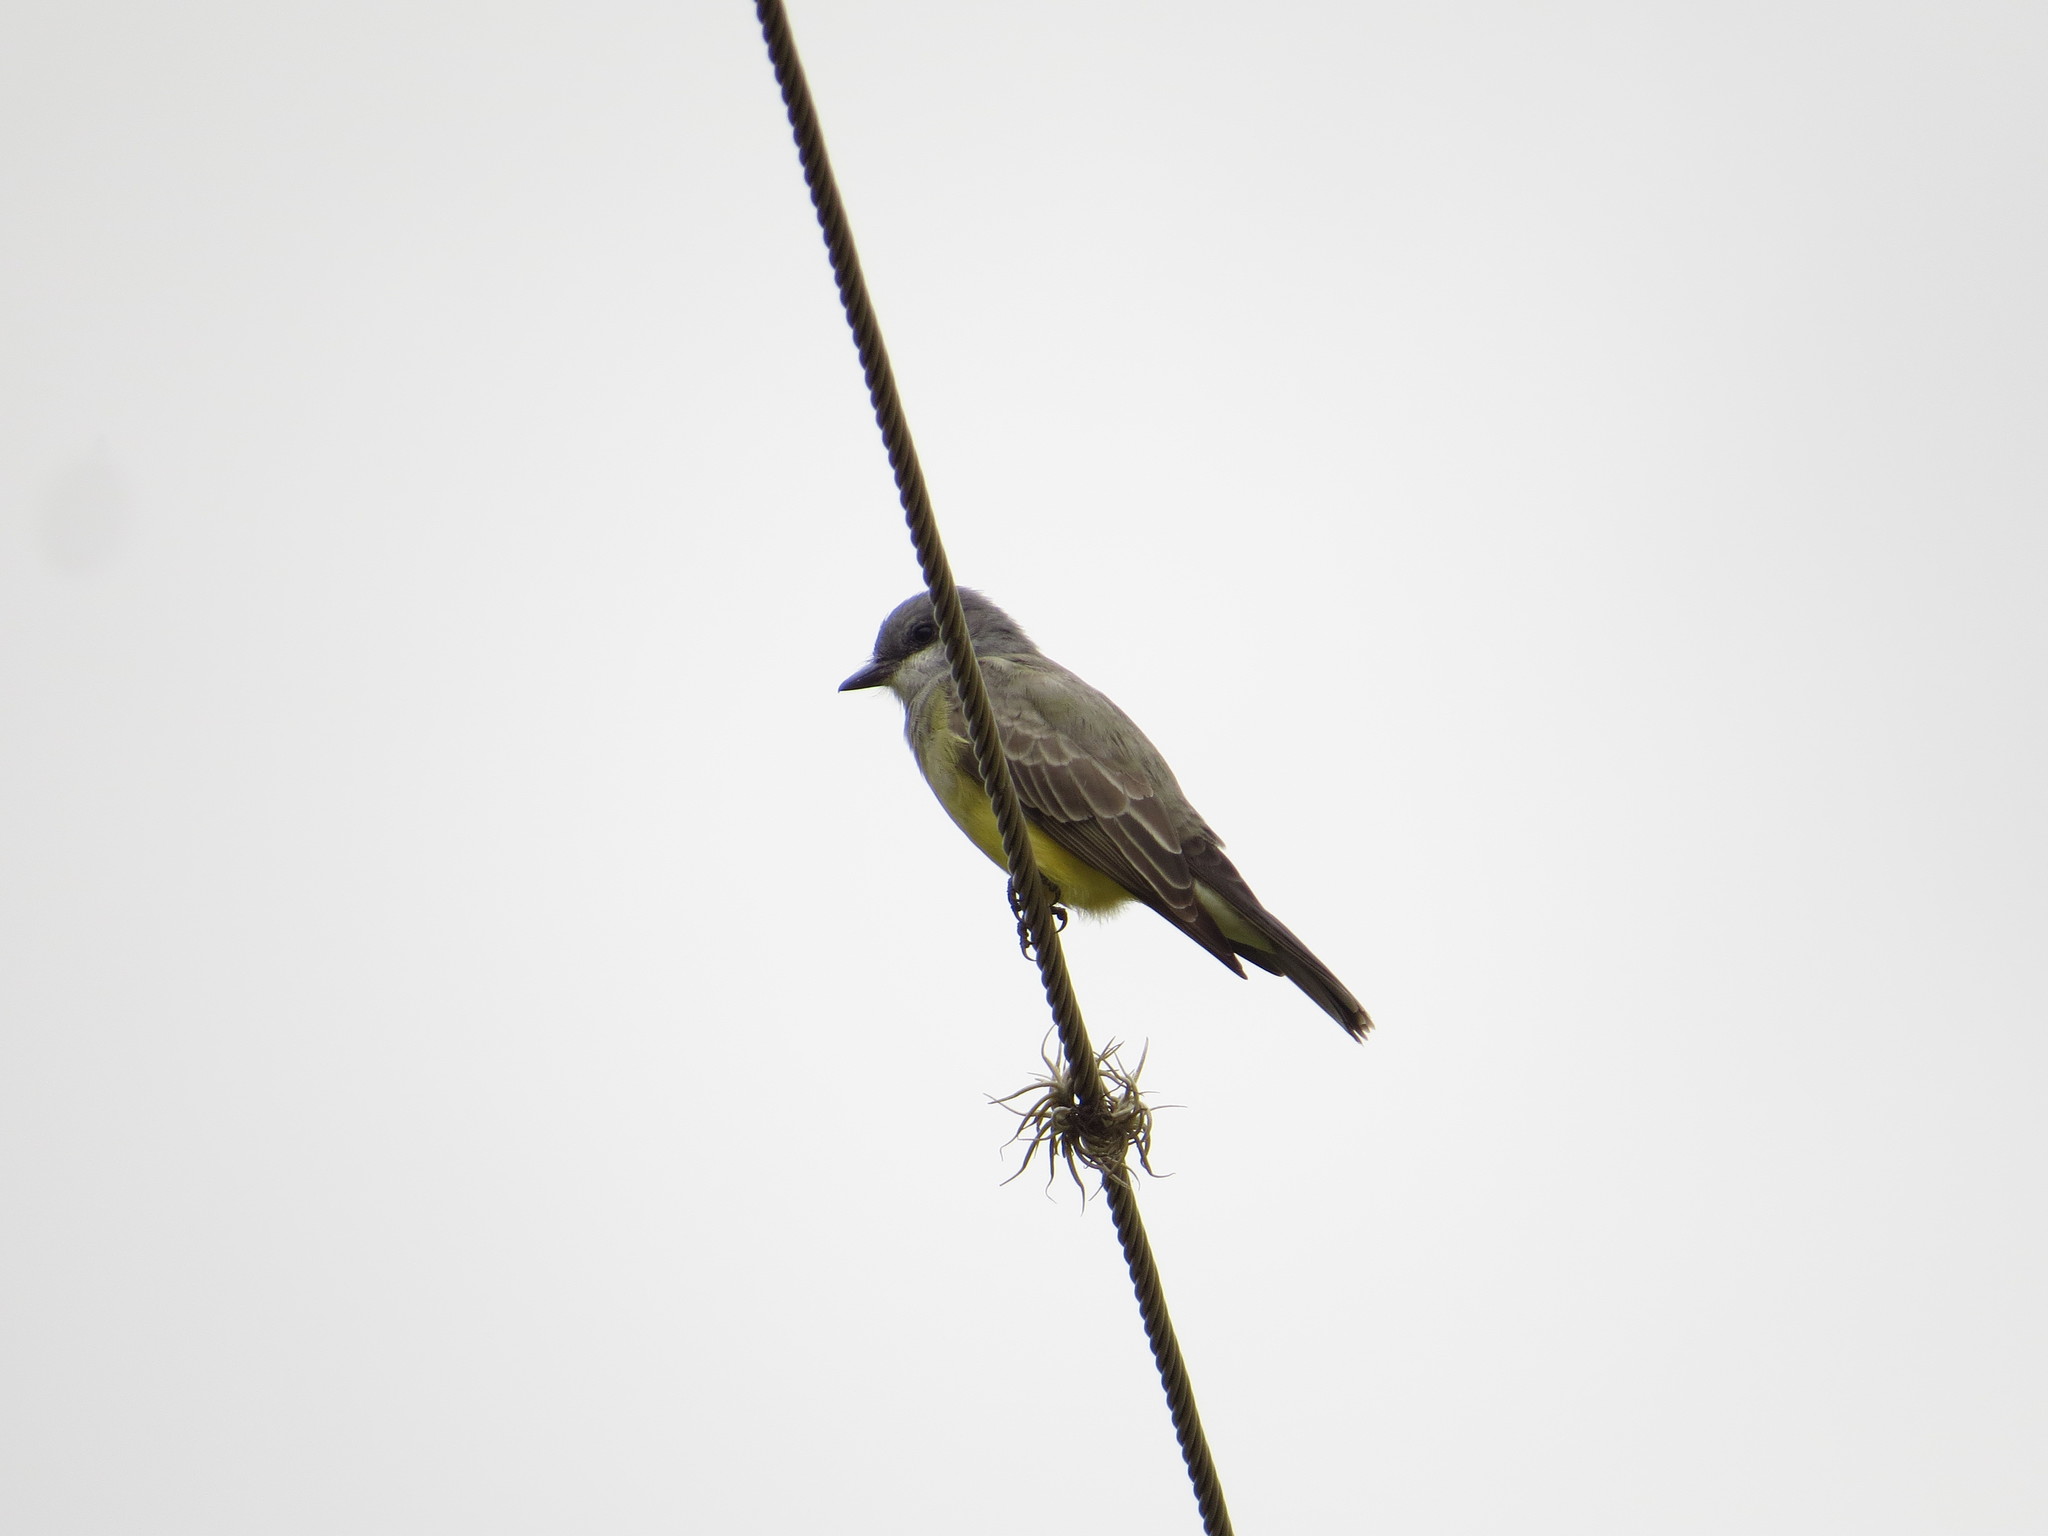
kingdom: Animalia
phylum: Chordata
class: Aves
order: Passeriformes
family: Tyrannidae
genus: Tyrannus
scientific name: Tyrannus vociferans
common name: Cassin's kingbird
